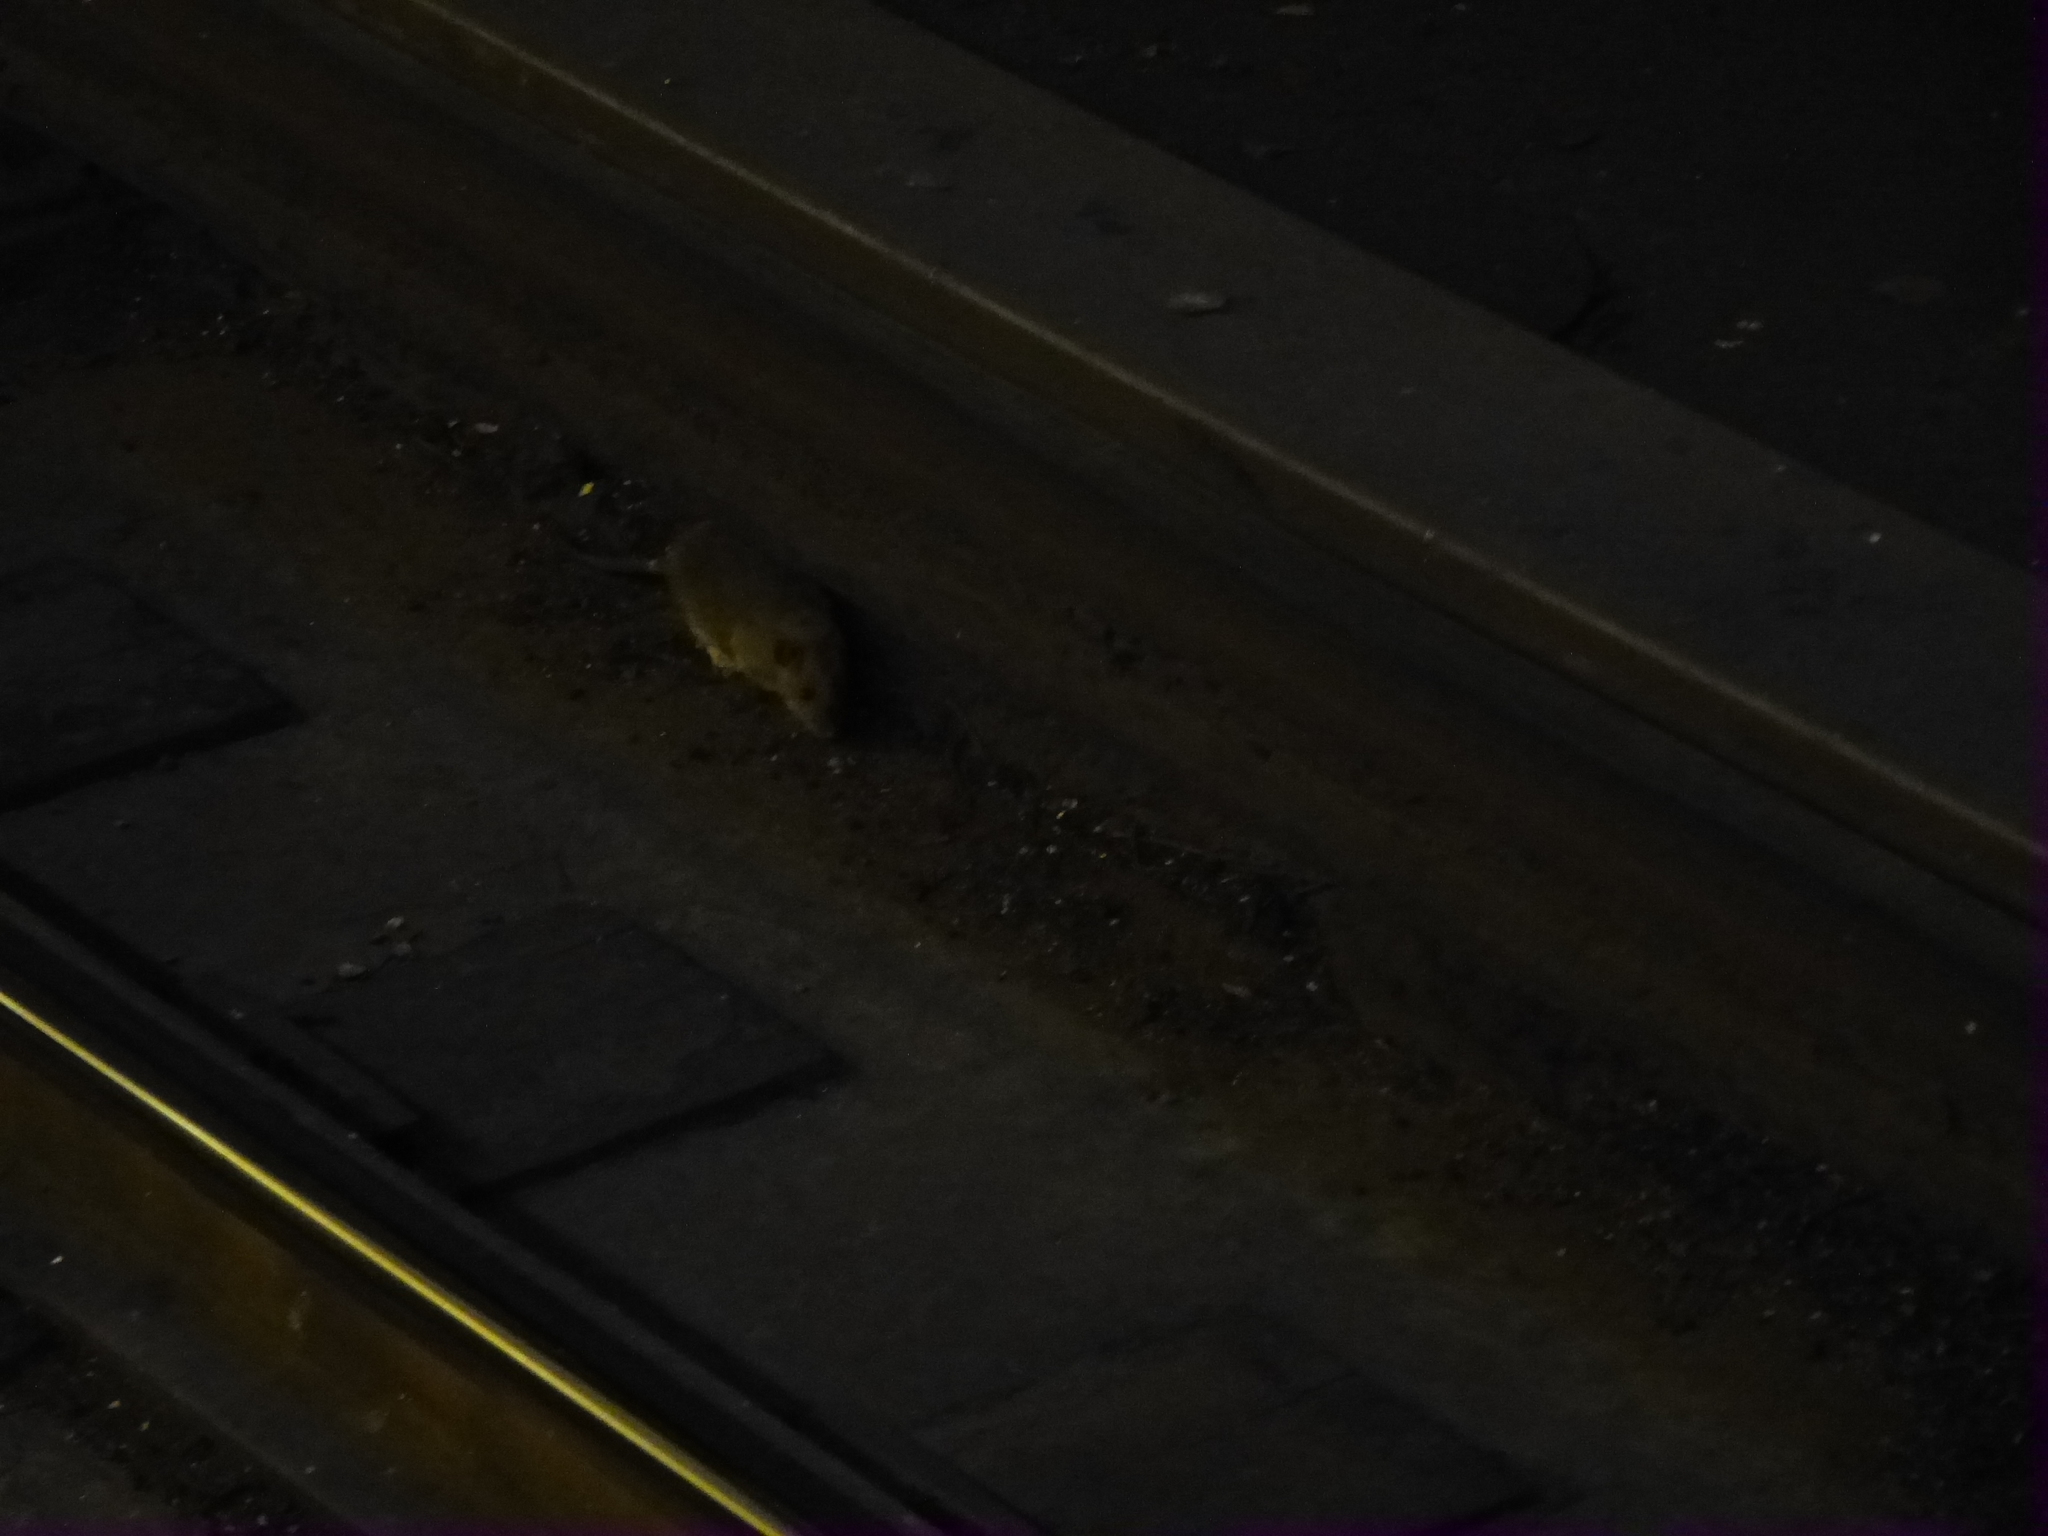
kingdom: Animalia
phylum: Chordata
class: Mammalia
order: Rodentia
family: Muridae
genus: Rattus
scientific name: Rattus norvegicus
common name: Brown rat
